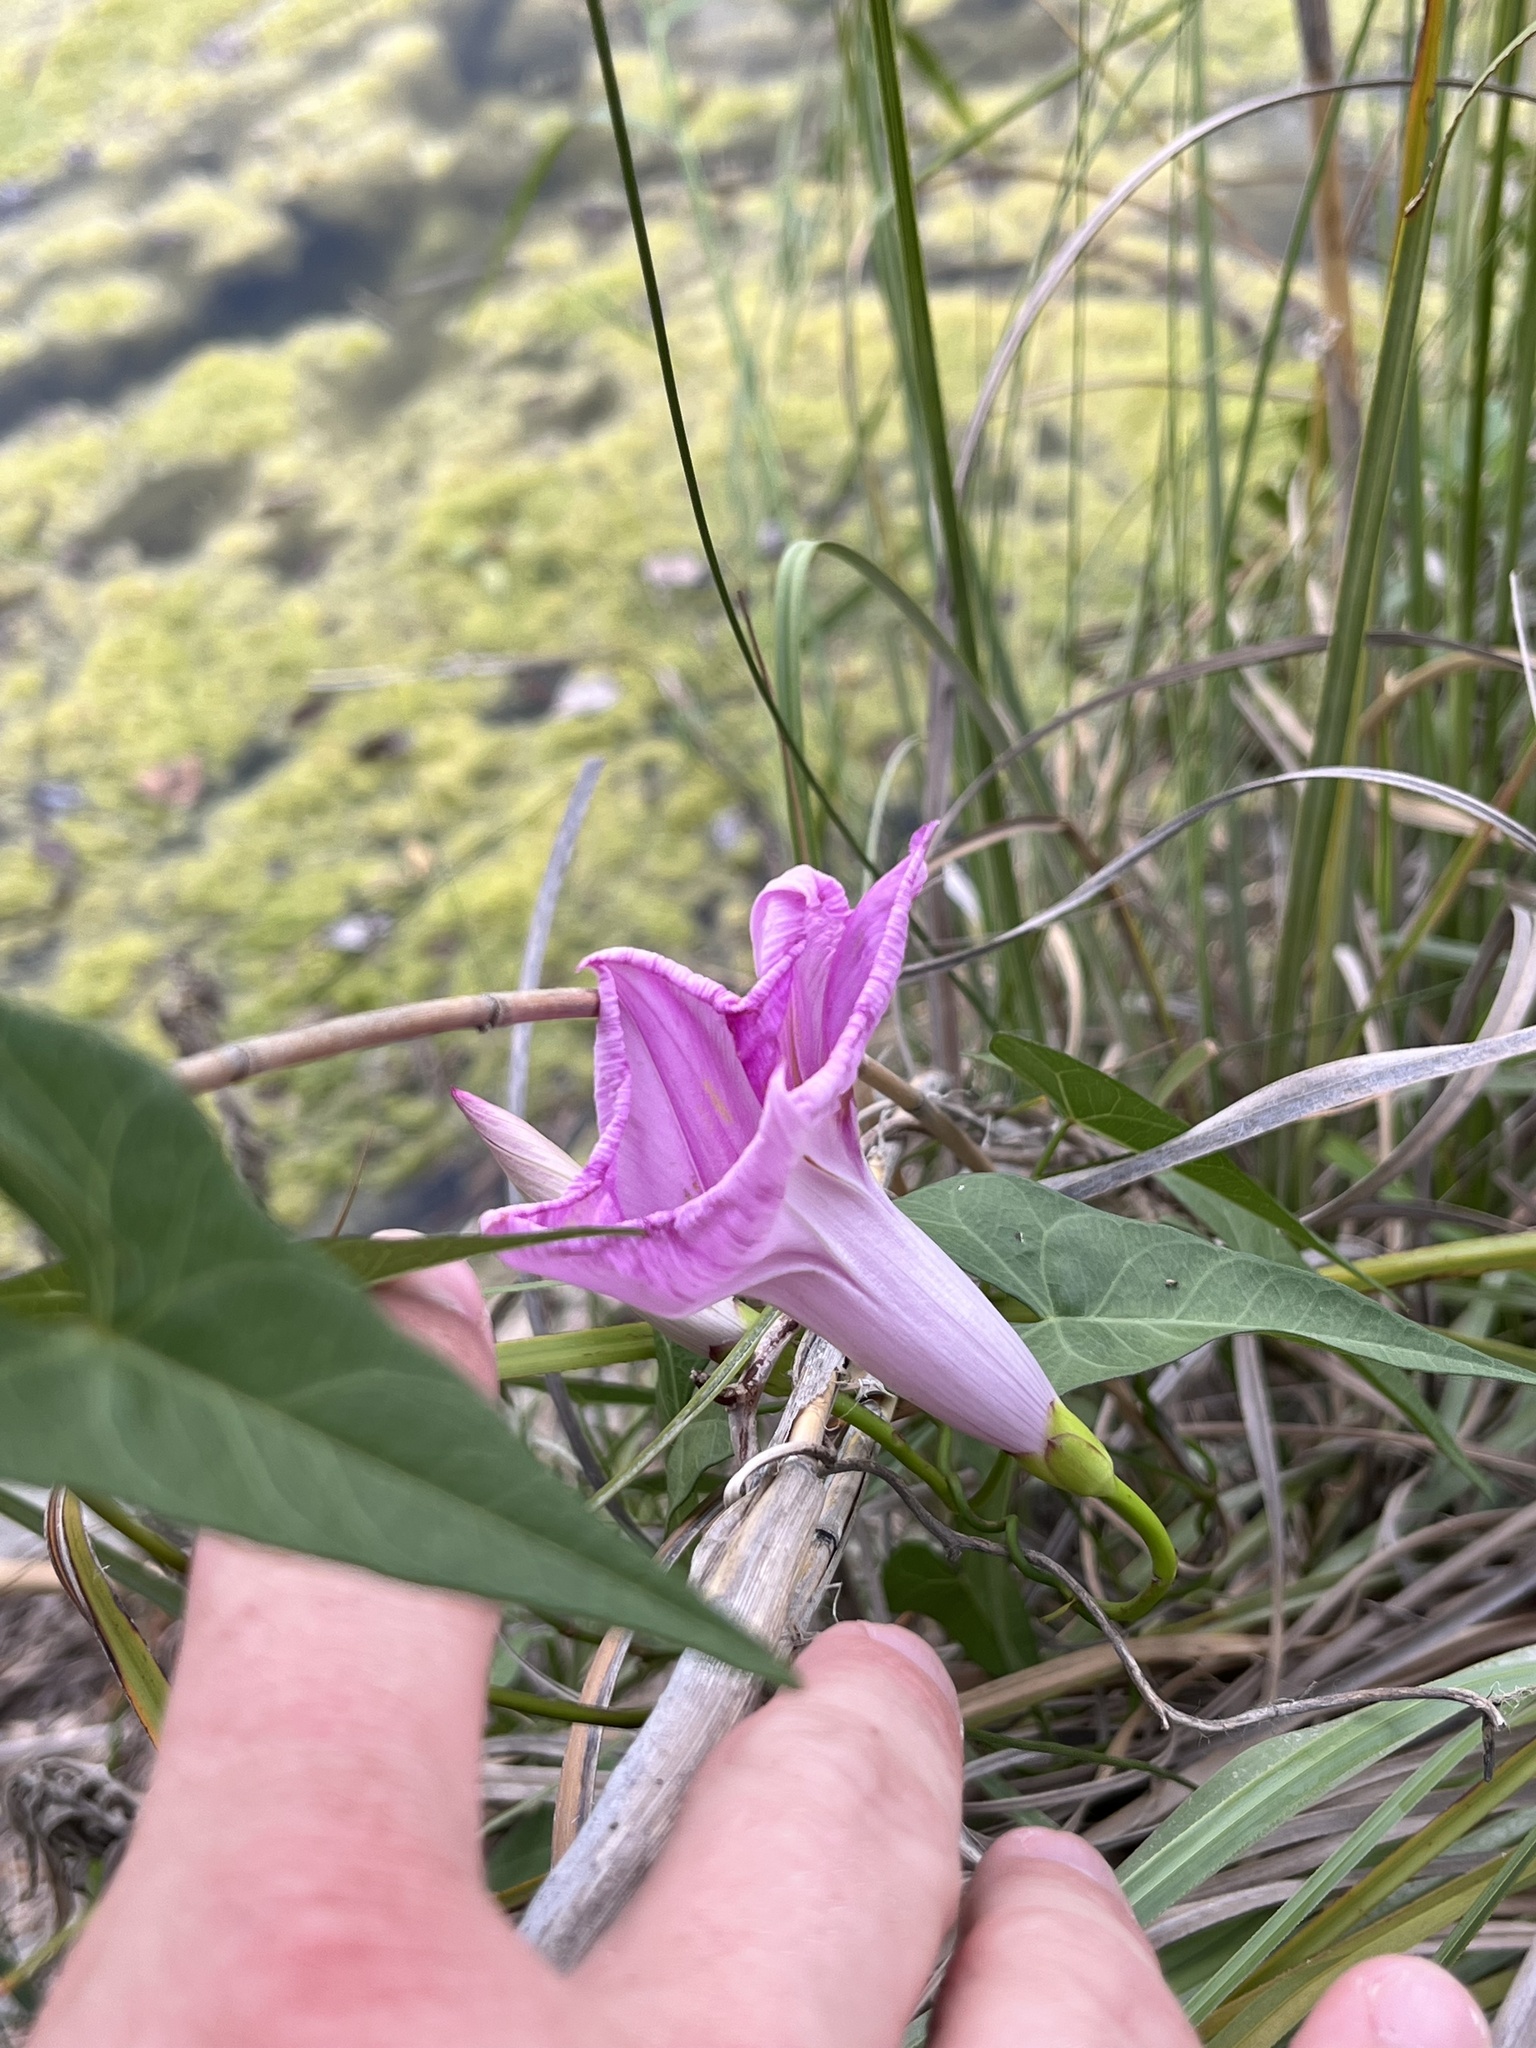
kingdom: Plantae
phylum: Tracheophyta
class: Magnoliopsida
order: Solanales
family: Convolvulaceae
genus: Ipomoea
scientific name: Ipomoea sagittata
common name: Saltmarsh morning glory
